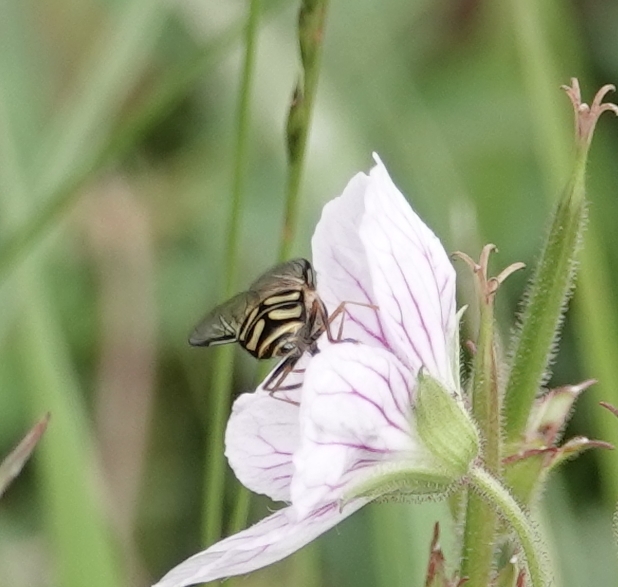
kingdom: Animalia
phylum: Arthropoda
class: Insecta
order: Diptera
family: Syrphidae
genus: Lapposyrphus
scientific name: Lapposyrphus lapponicus
